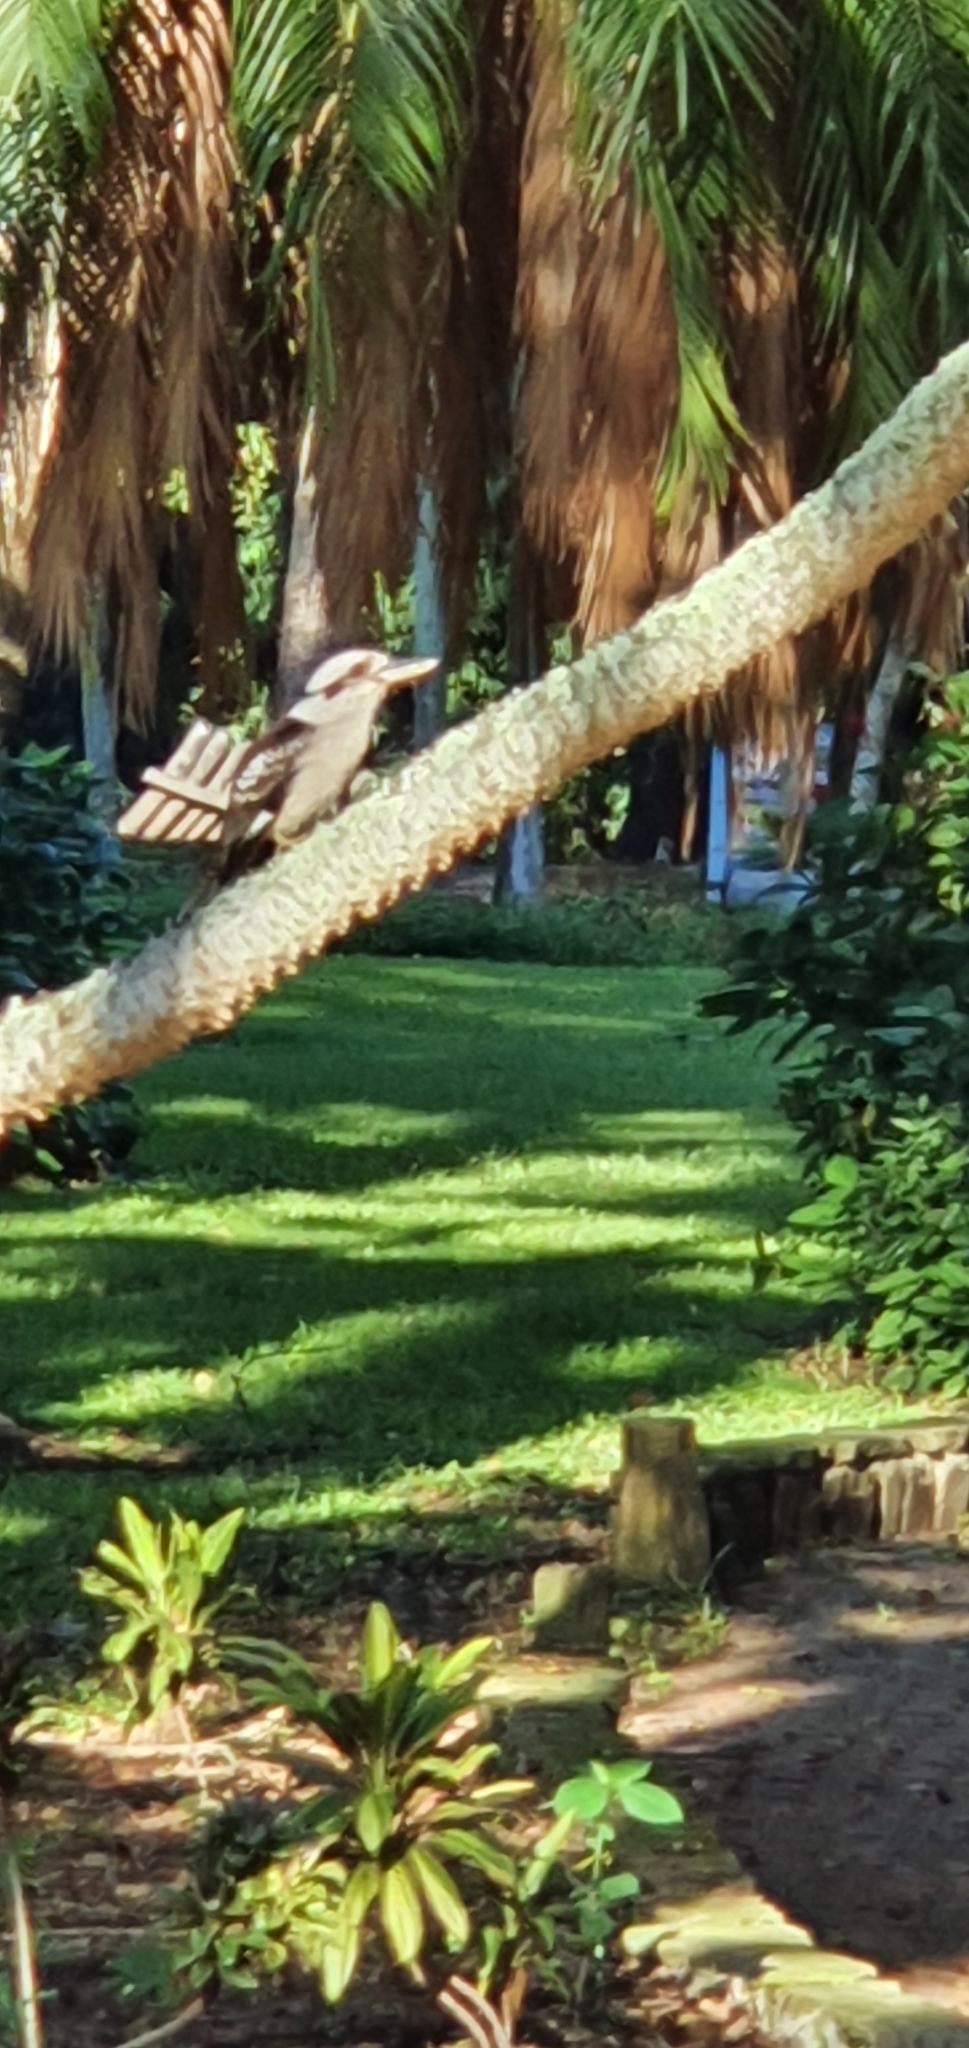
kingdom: Animalia
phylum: Chordata
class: Aves
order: Coraciiformes
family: Alcedinidae
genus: Dacelo
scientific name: Dacelo novaeguineae
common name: Laughing kookaburra
